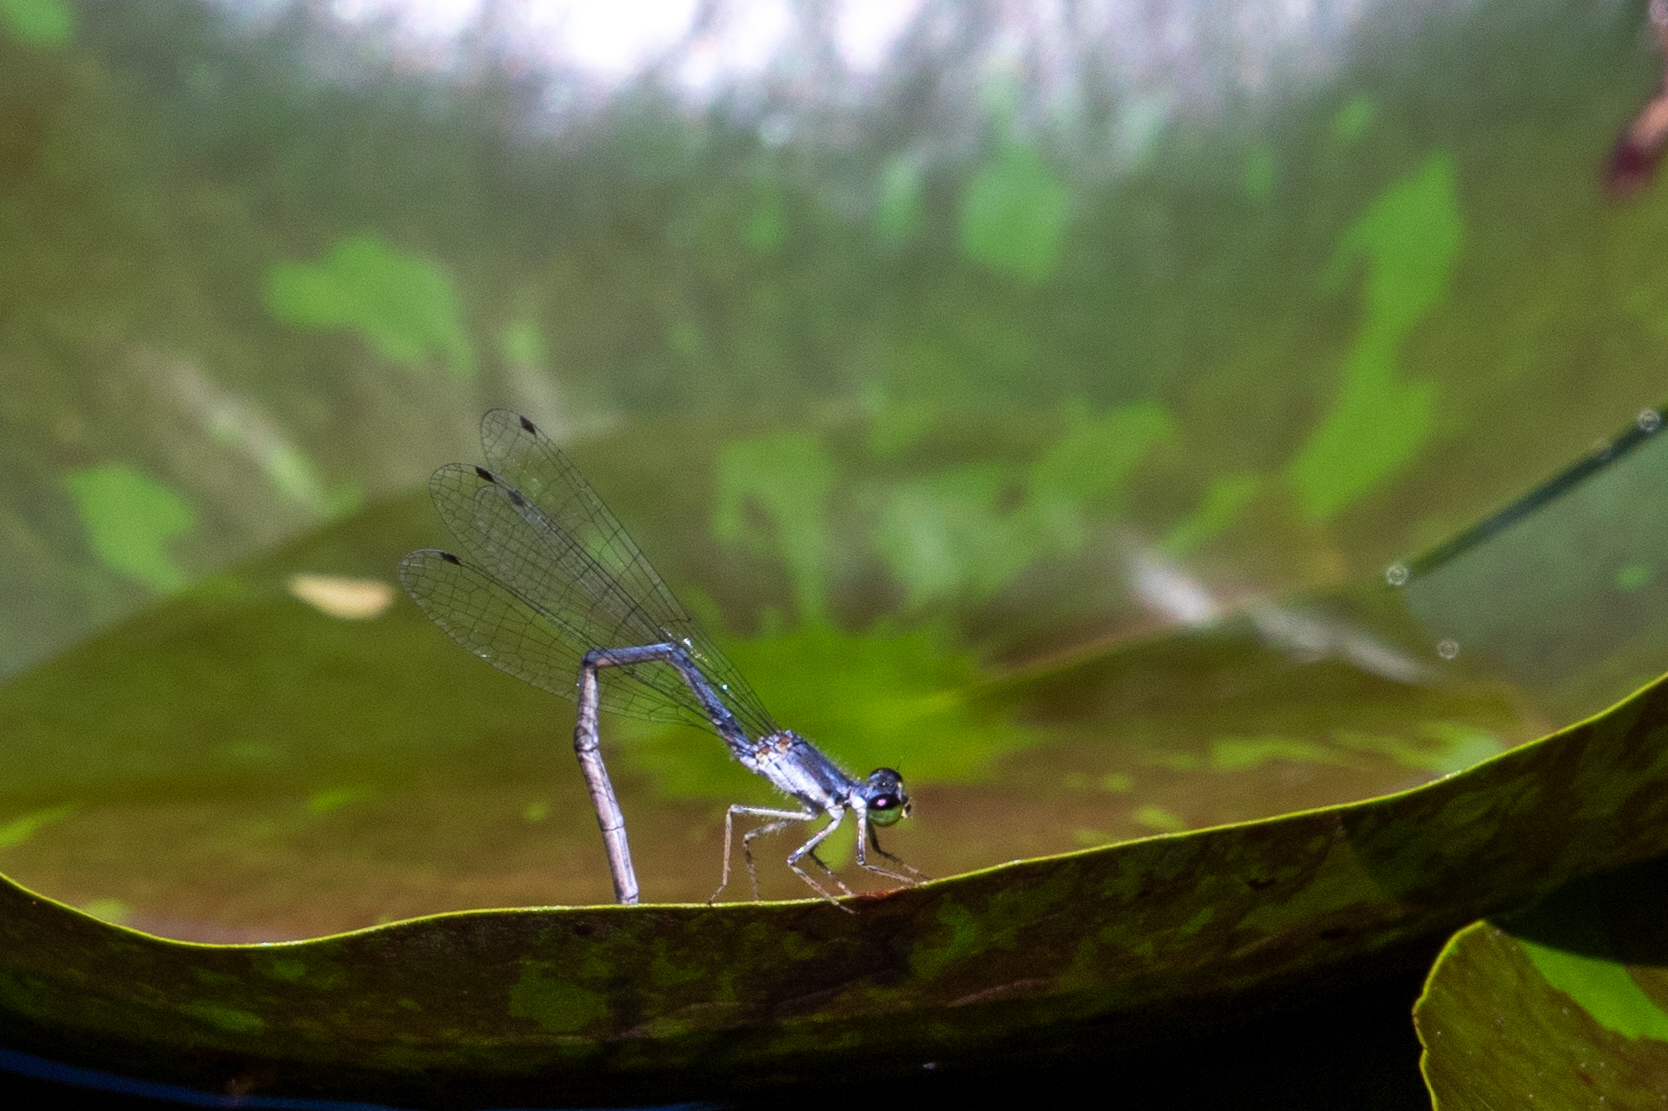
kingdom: Animalia
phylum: Arthropoda
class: Insecta
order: Odonata
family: Coenagrionidae
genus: Ischnura
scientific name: Ischnura posita
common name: Fragile forktail
